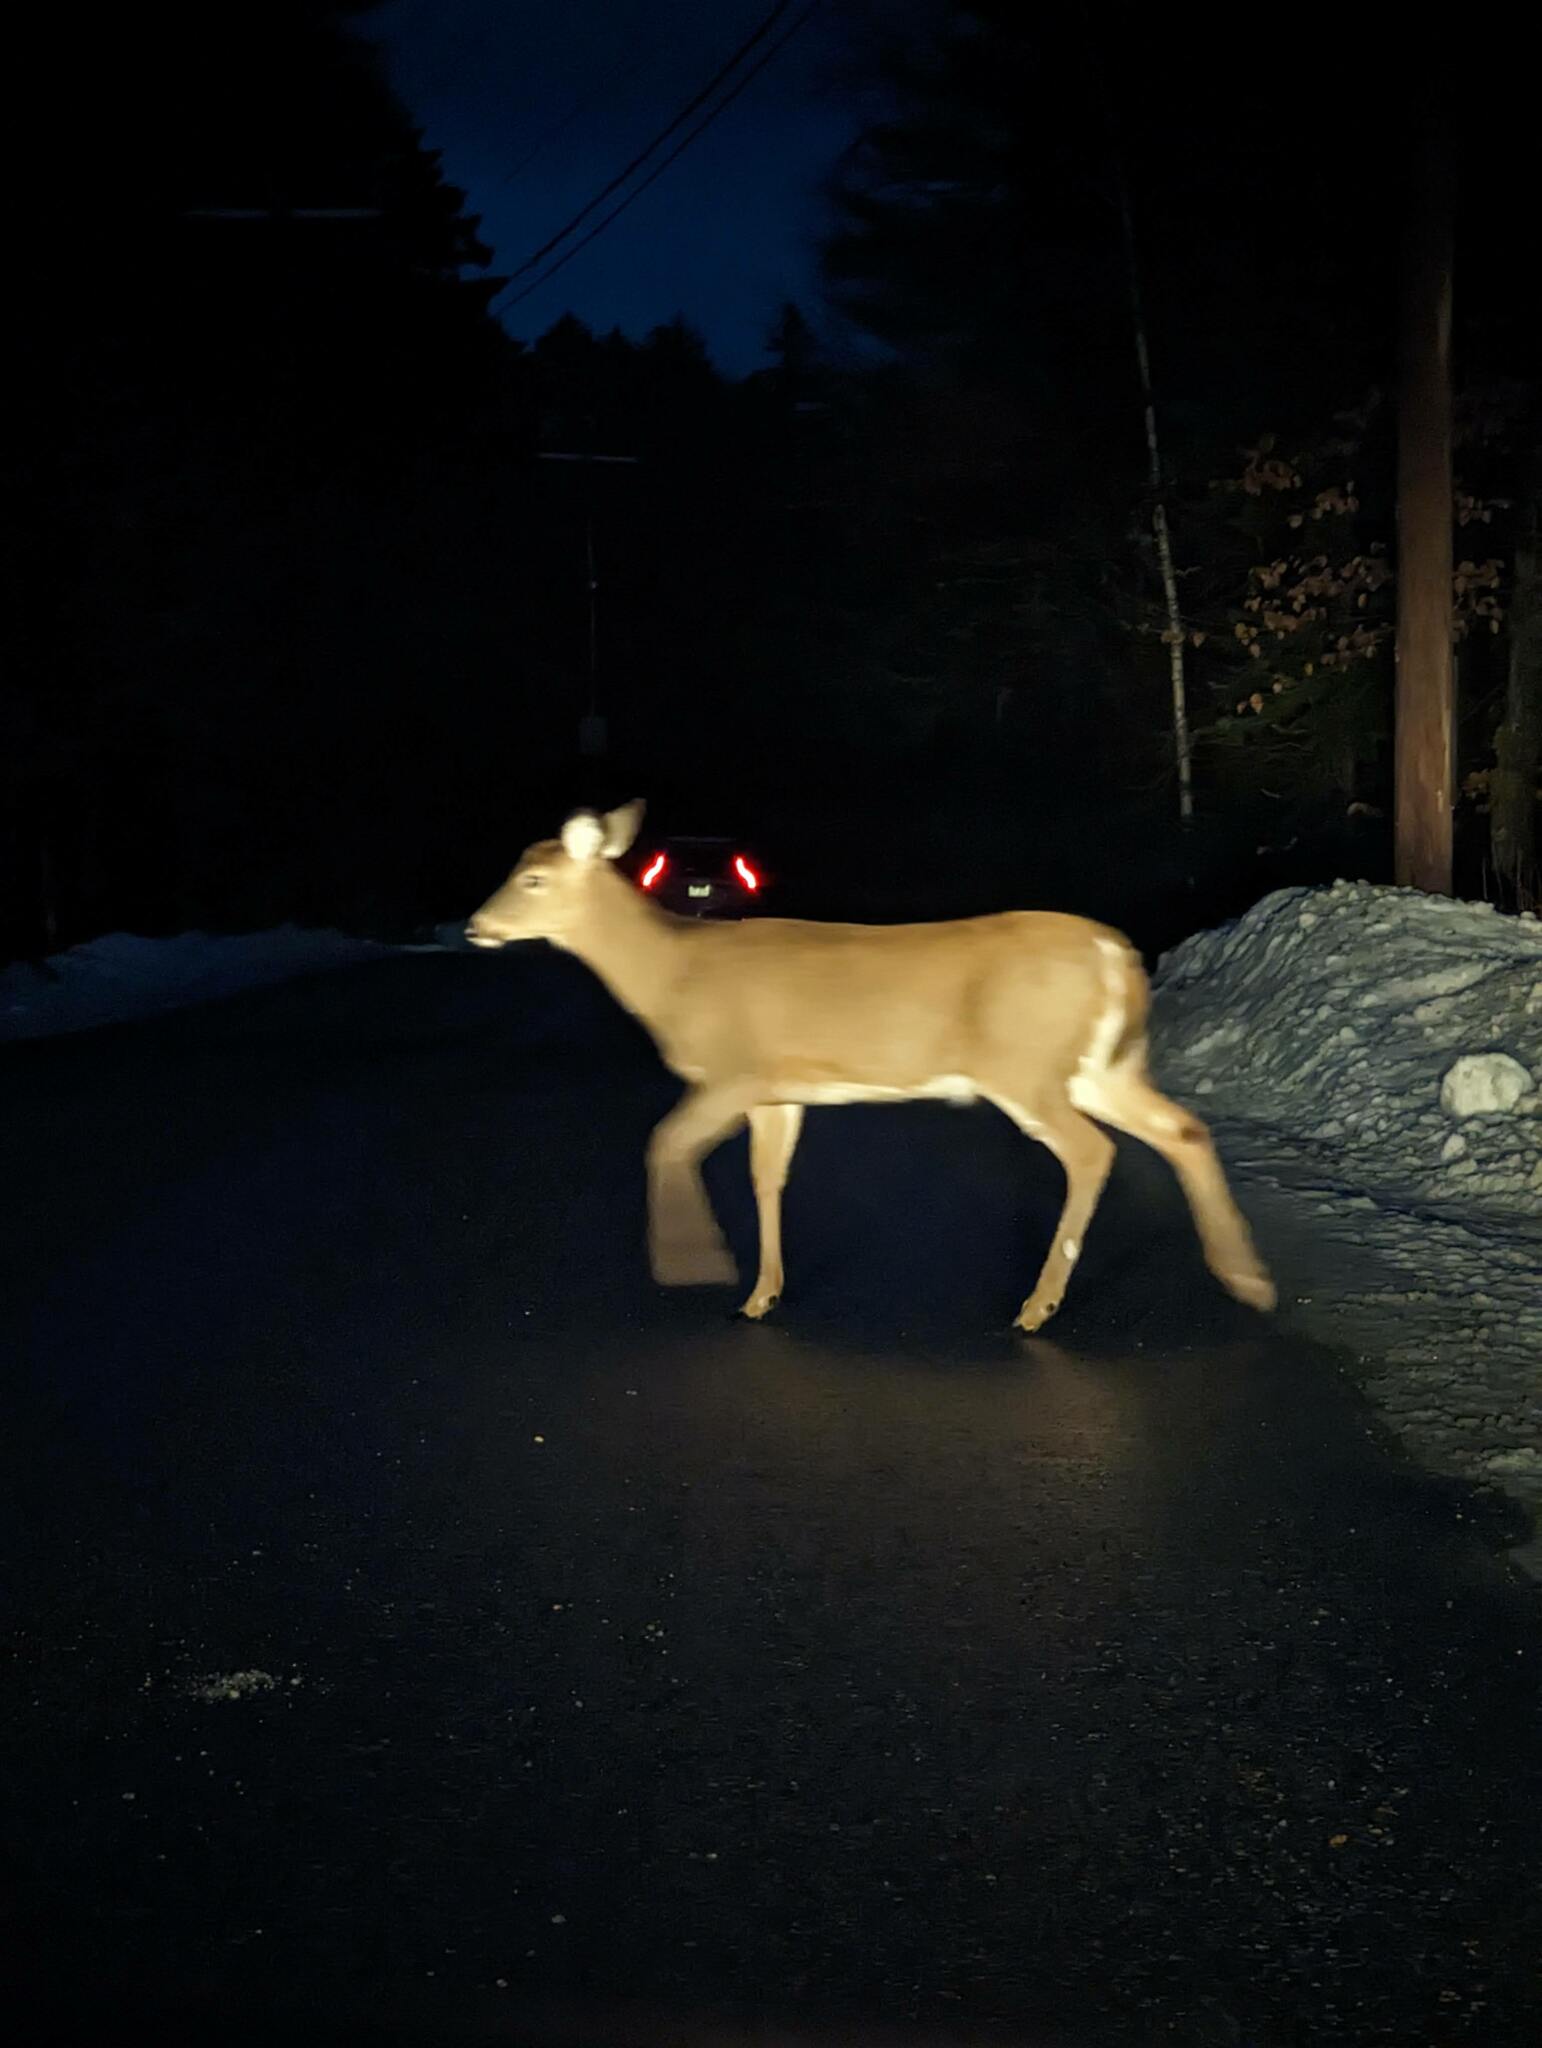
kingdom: Animalia
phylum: Chordata
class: Mammalia
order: Artiodactyla
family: Cervidae
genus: Odocoileus
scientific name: Odocoileus virginianus
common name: White-tailed deer
